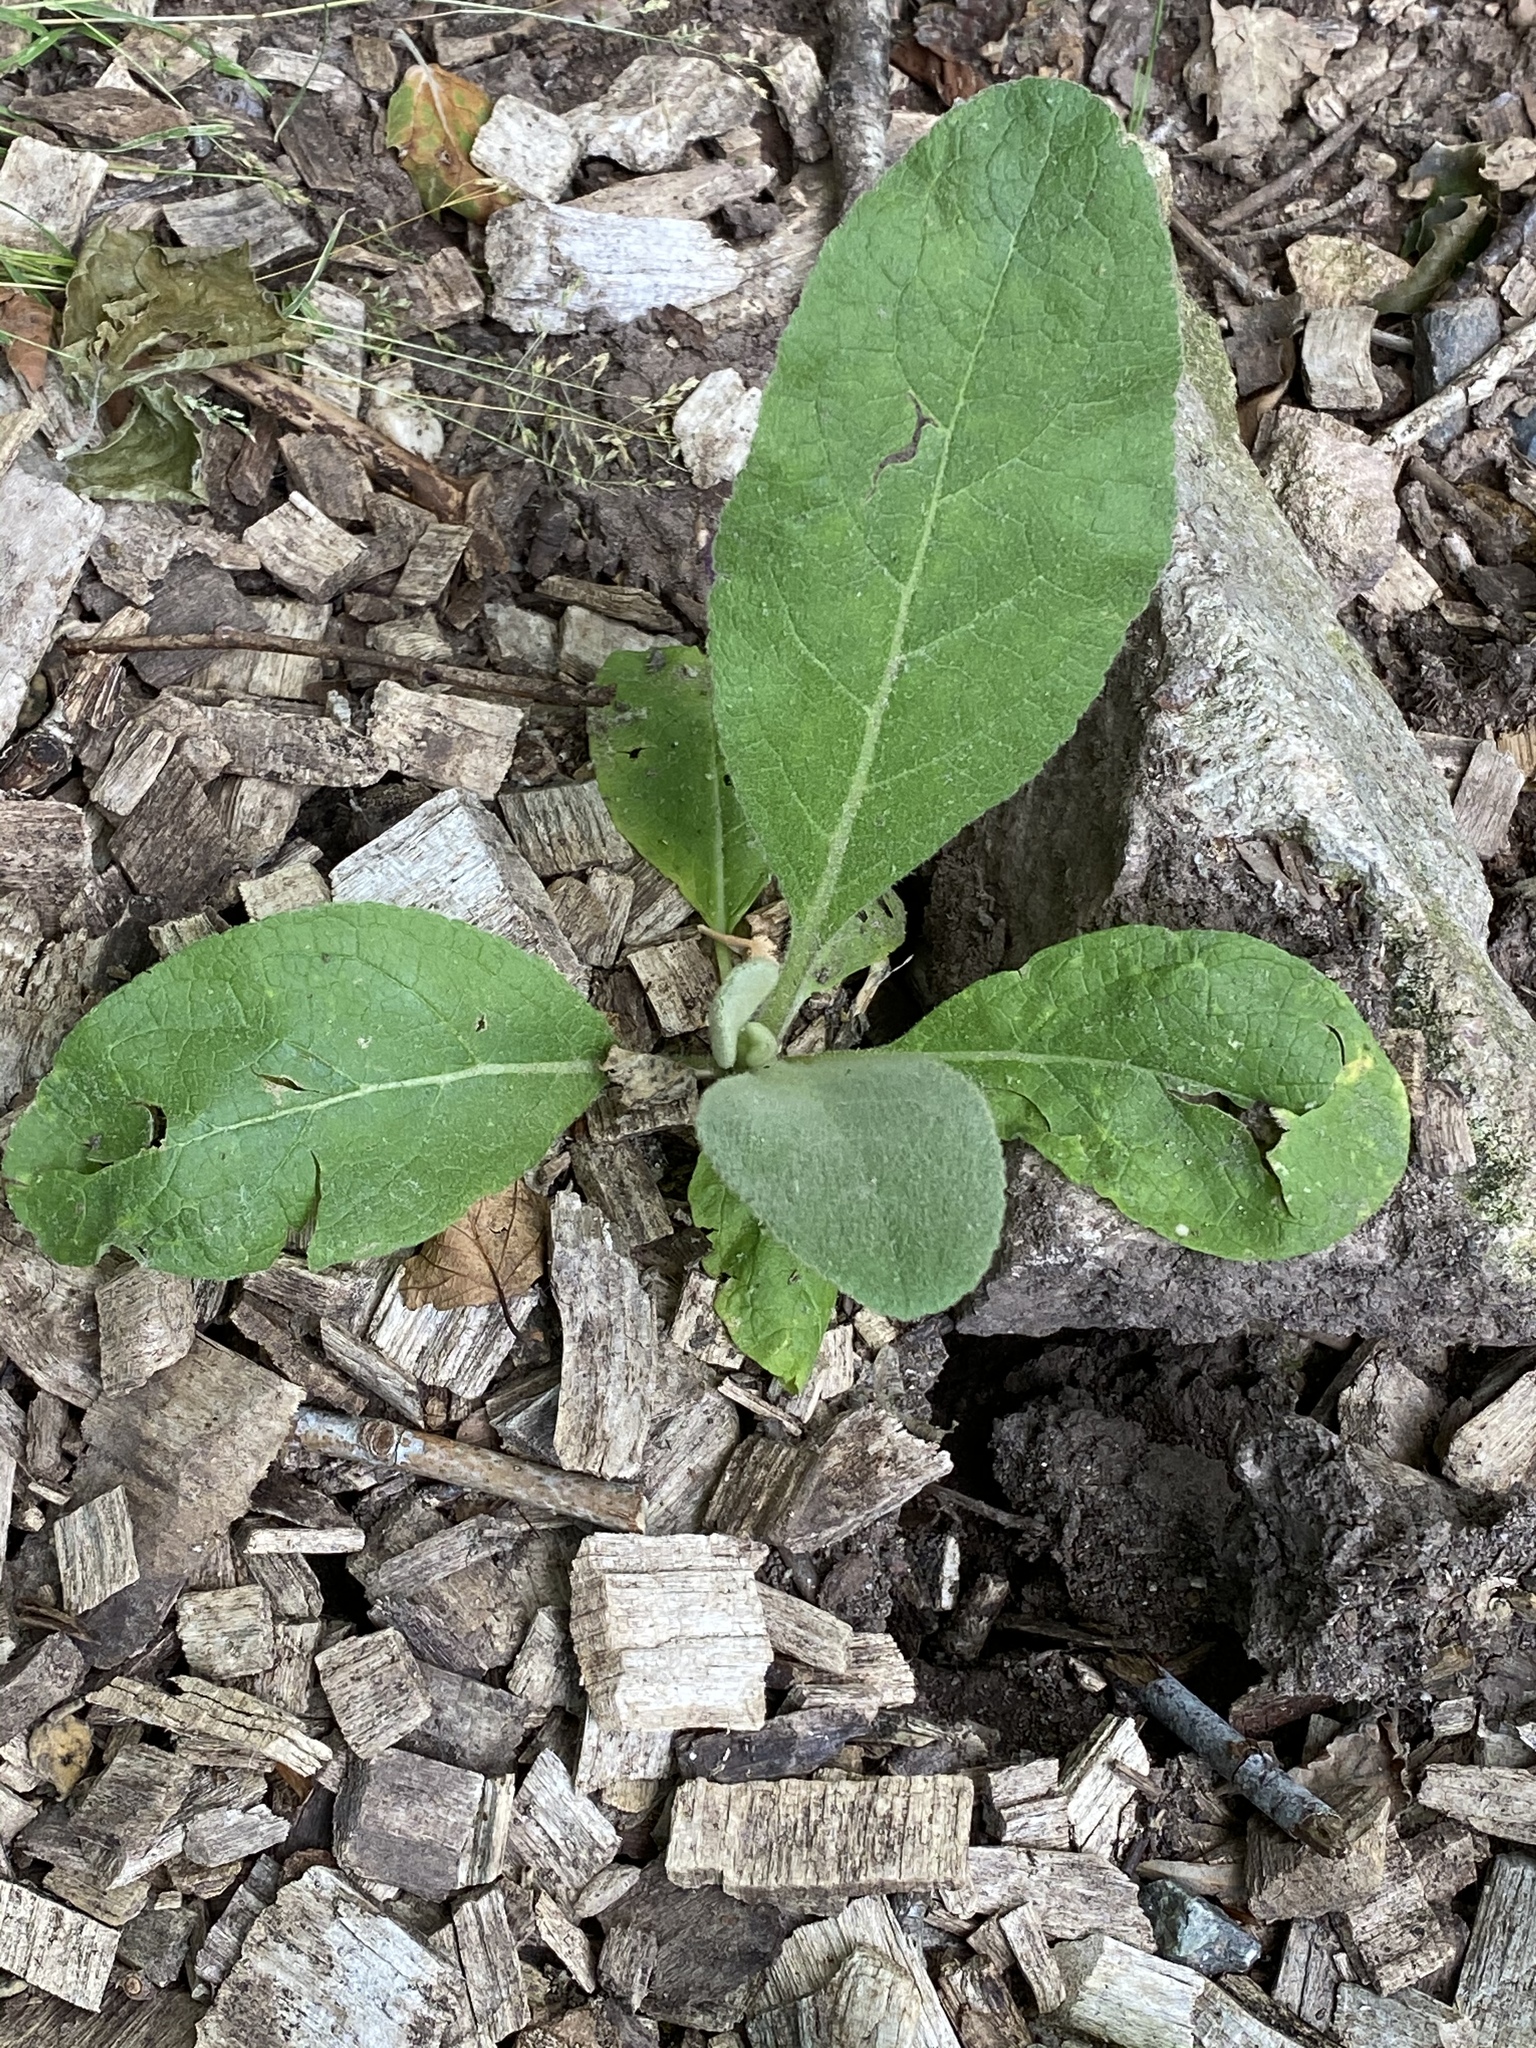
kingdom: Plantae
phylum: Tracheophyta
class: Magnoliopsida
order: Lamiales
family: Scrophulariaceae
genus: Verbascum
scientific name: Verbascum thapsus
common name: Common mullein
